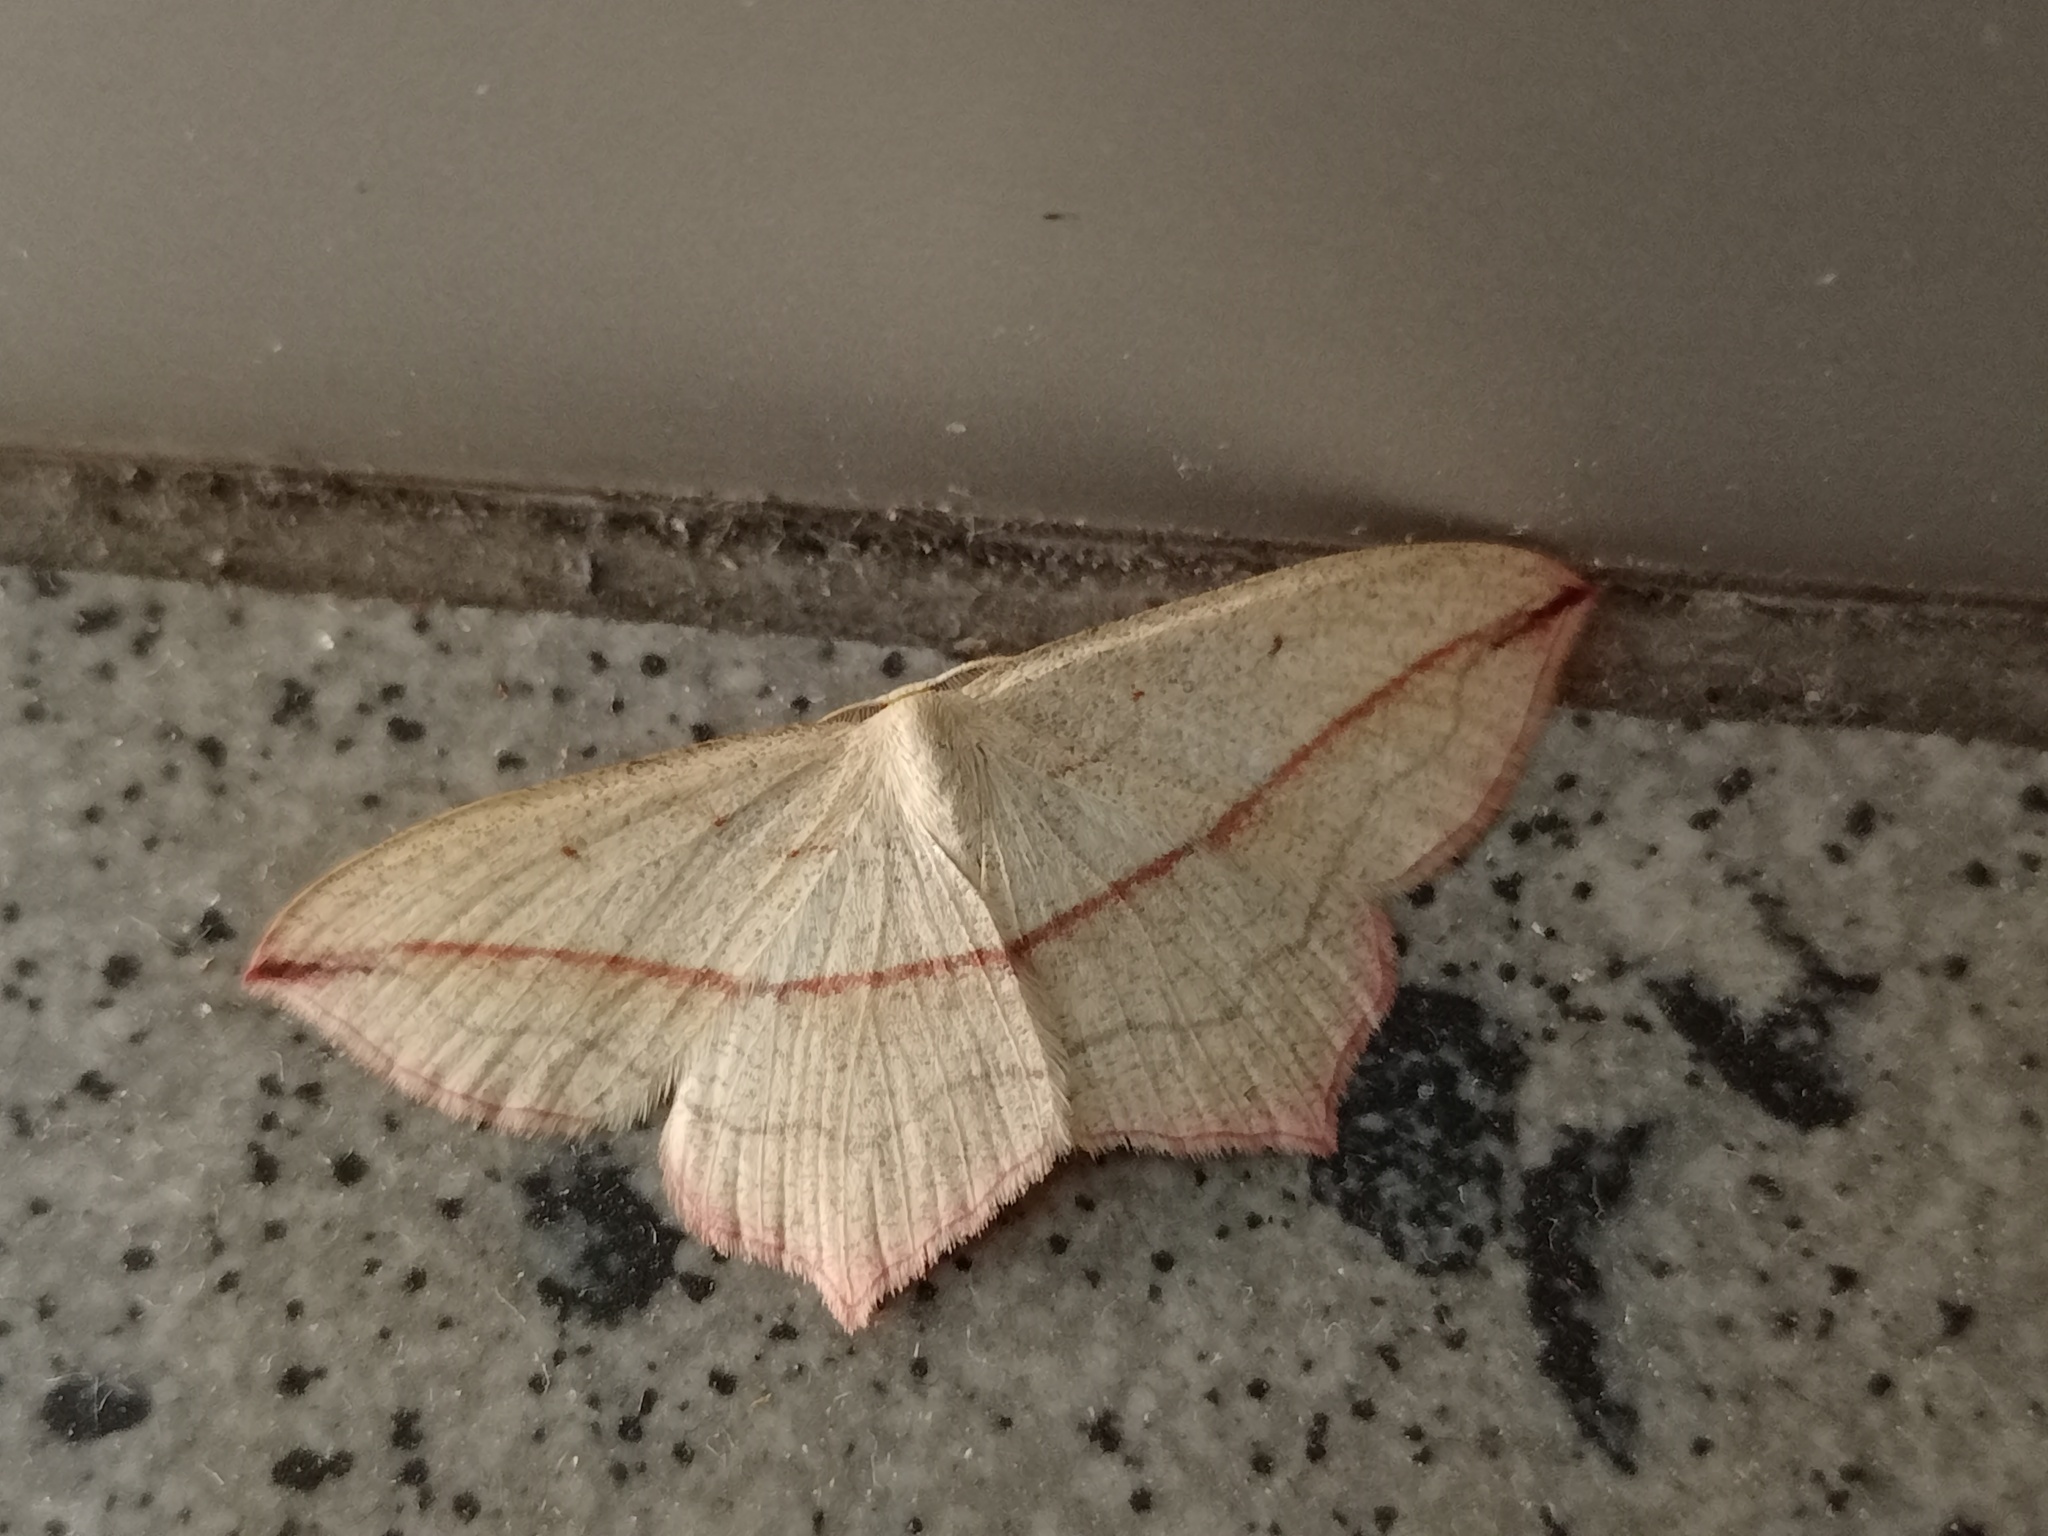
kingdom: Animalia
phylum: Arthropoda
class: Insecta
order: Lepidoptera
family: Geometridae
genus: Timandra
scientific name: Timandra comae
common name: Blood-vein
